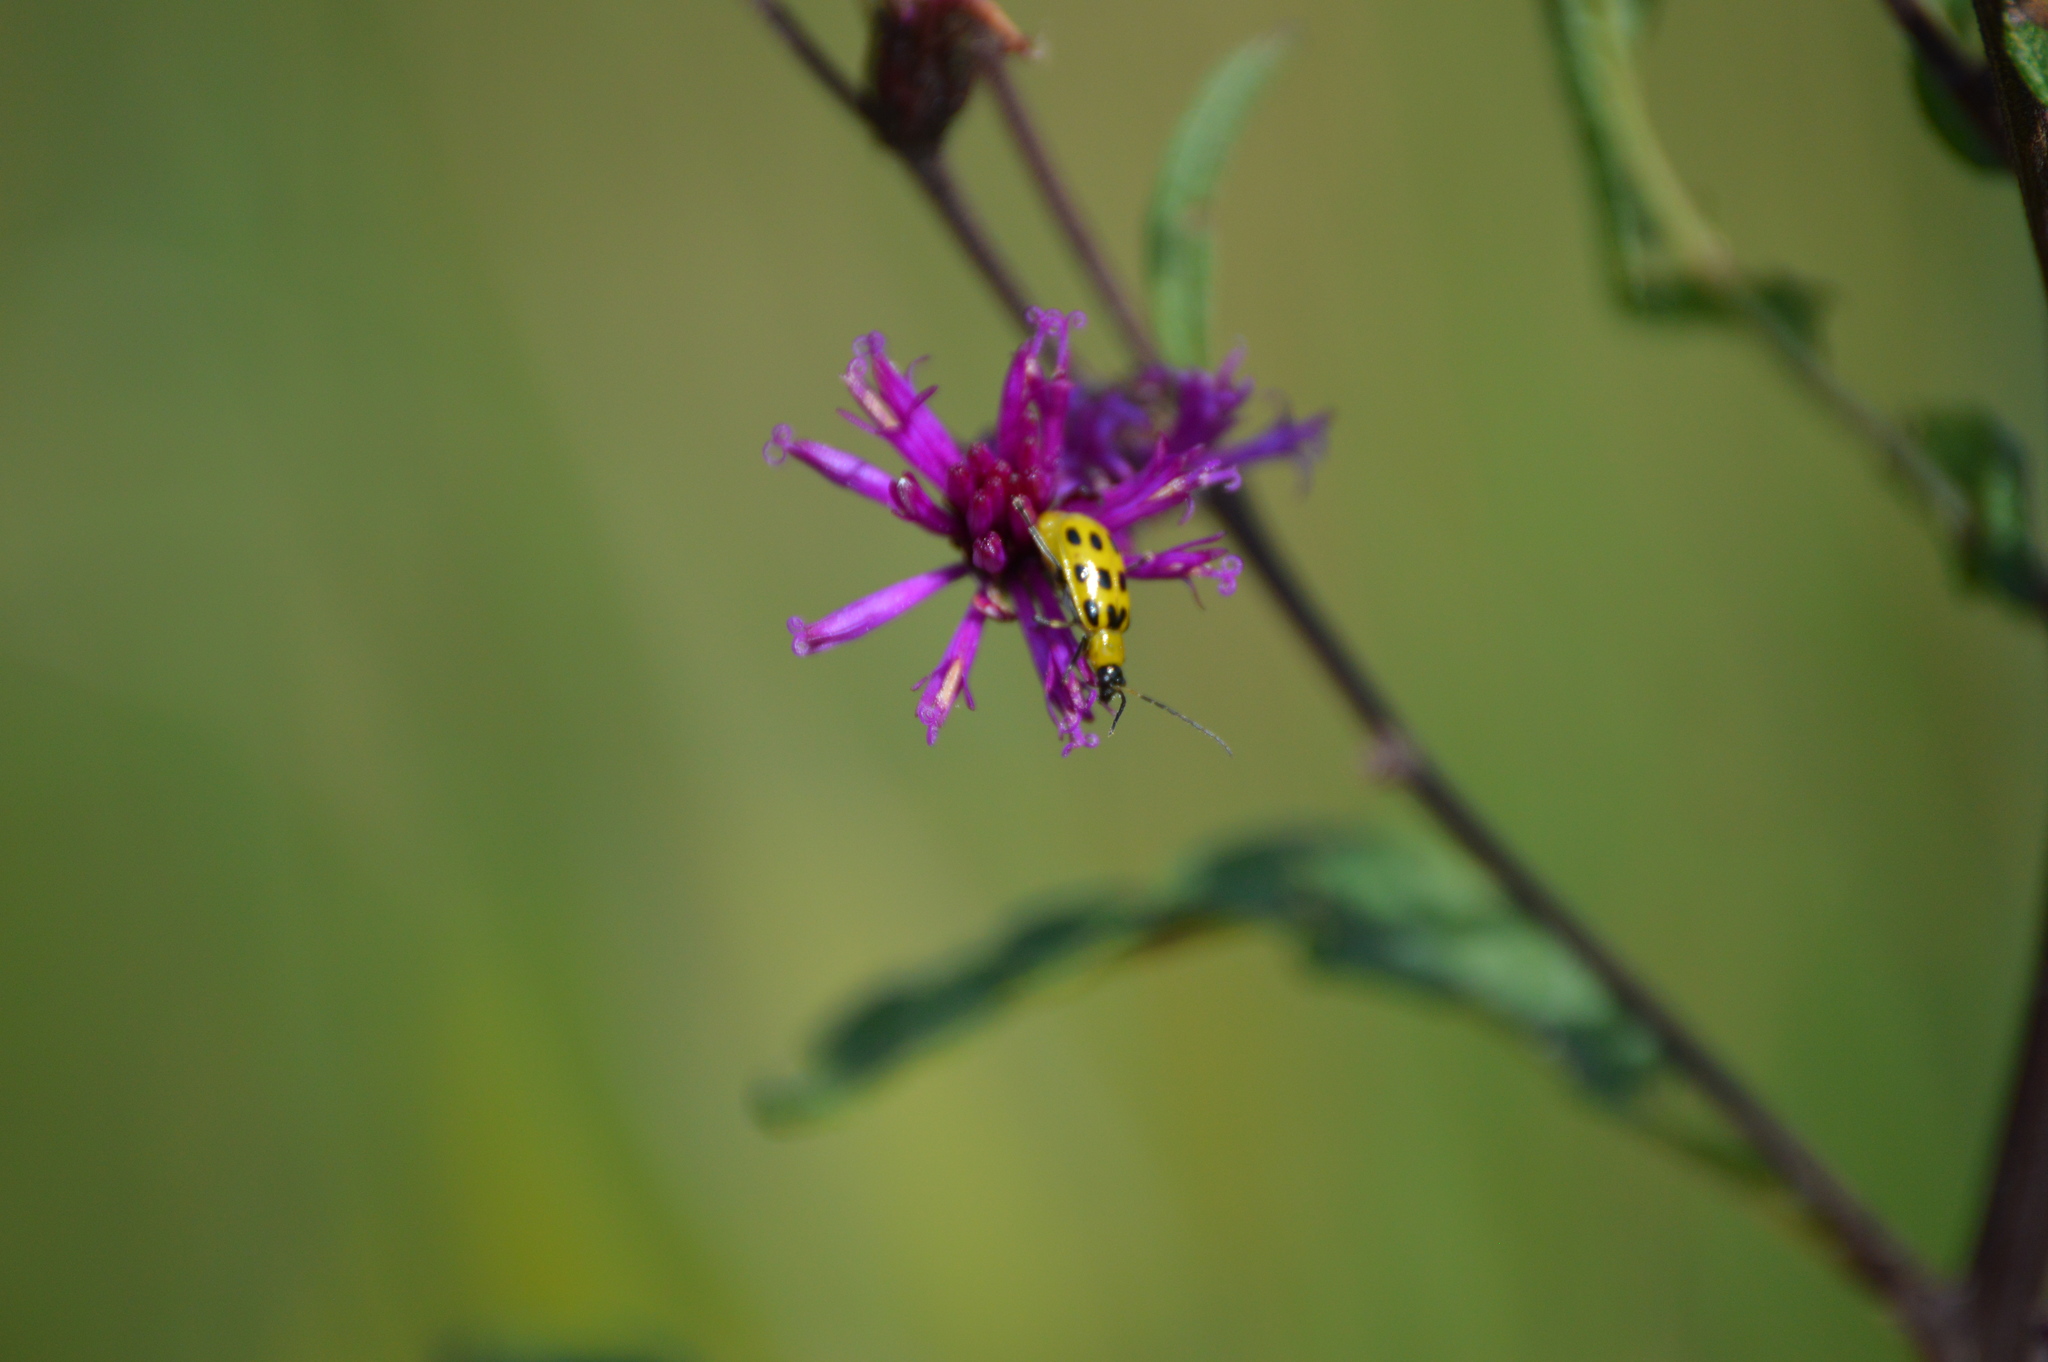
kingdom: Animalia
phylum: Arthropoda
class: Insecta
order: Coleoptera
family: Chrysomelidae
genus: Diabrotica
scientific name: Diabrotica undecimpunctata
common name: Spotted cucumber beetle
